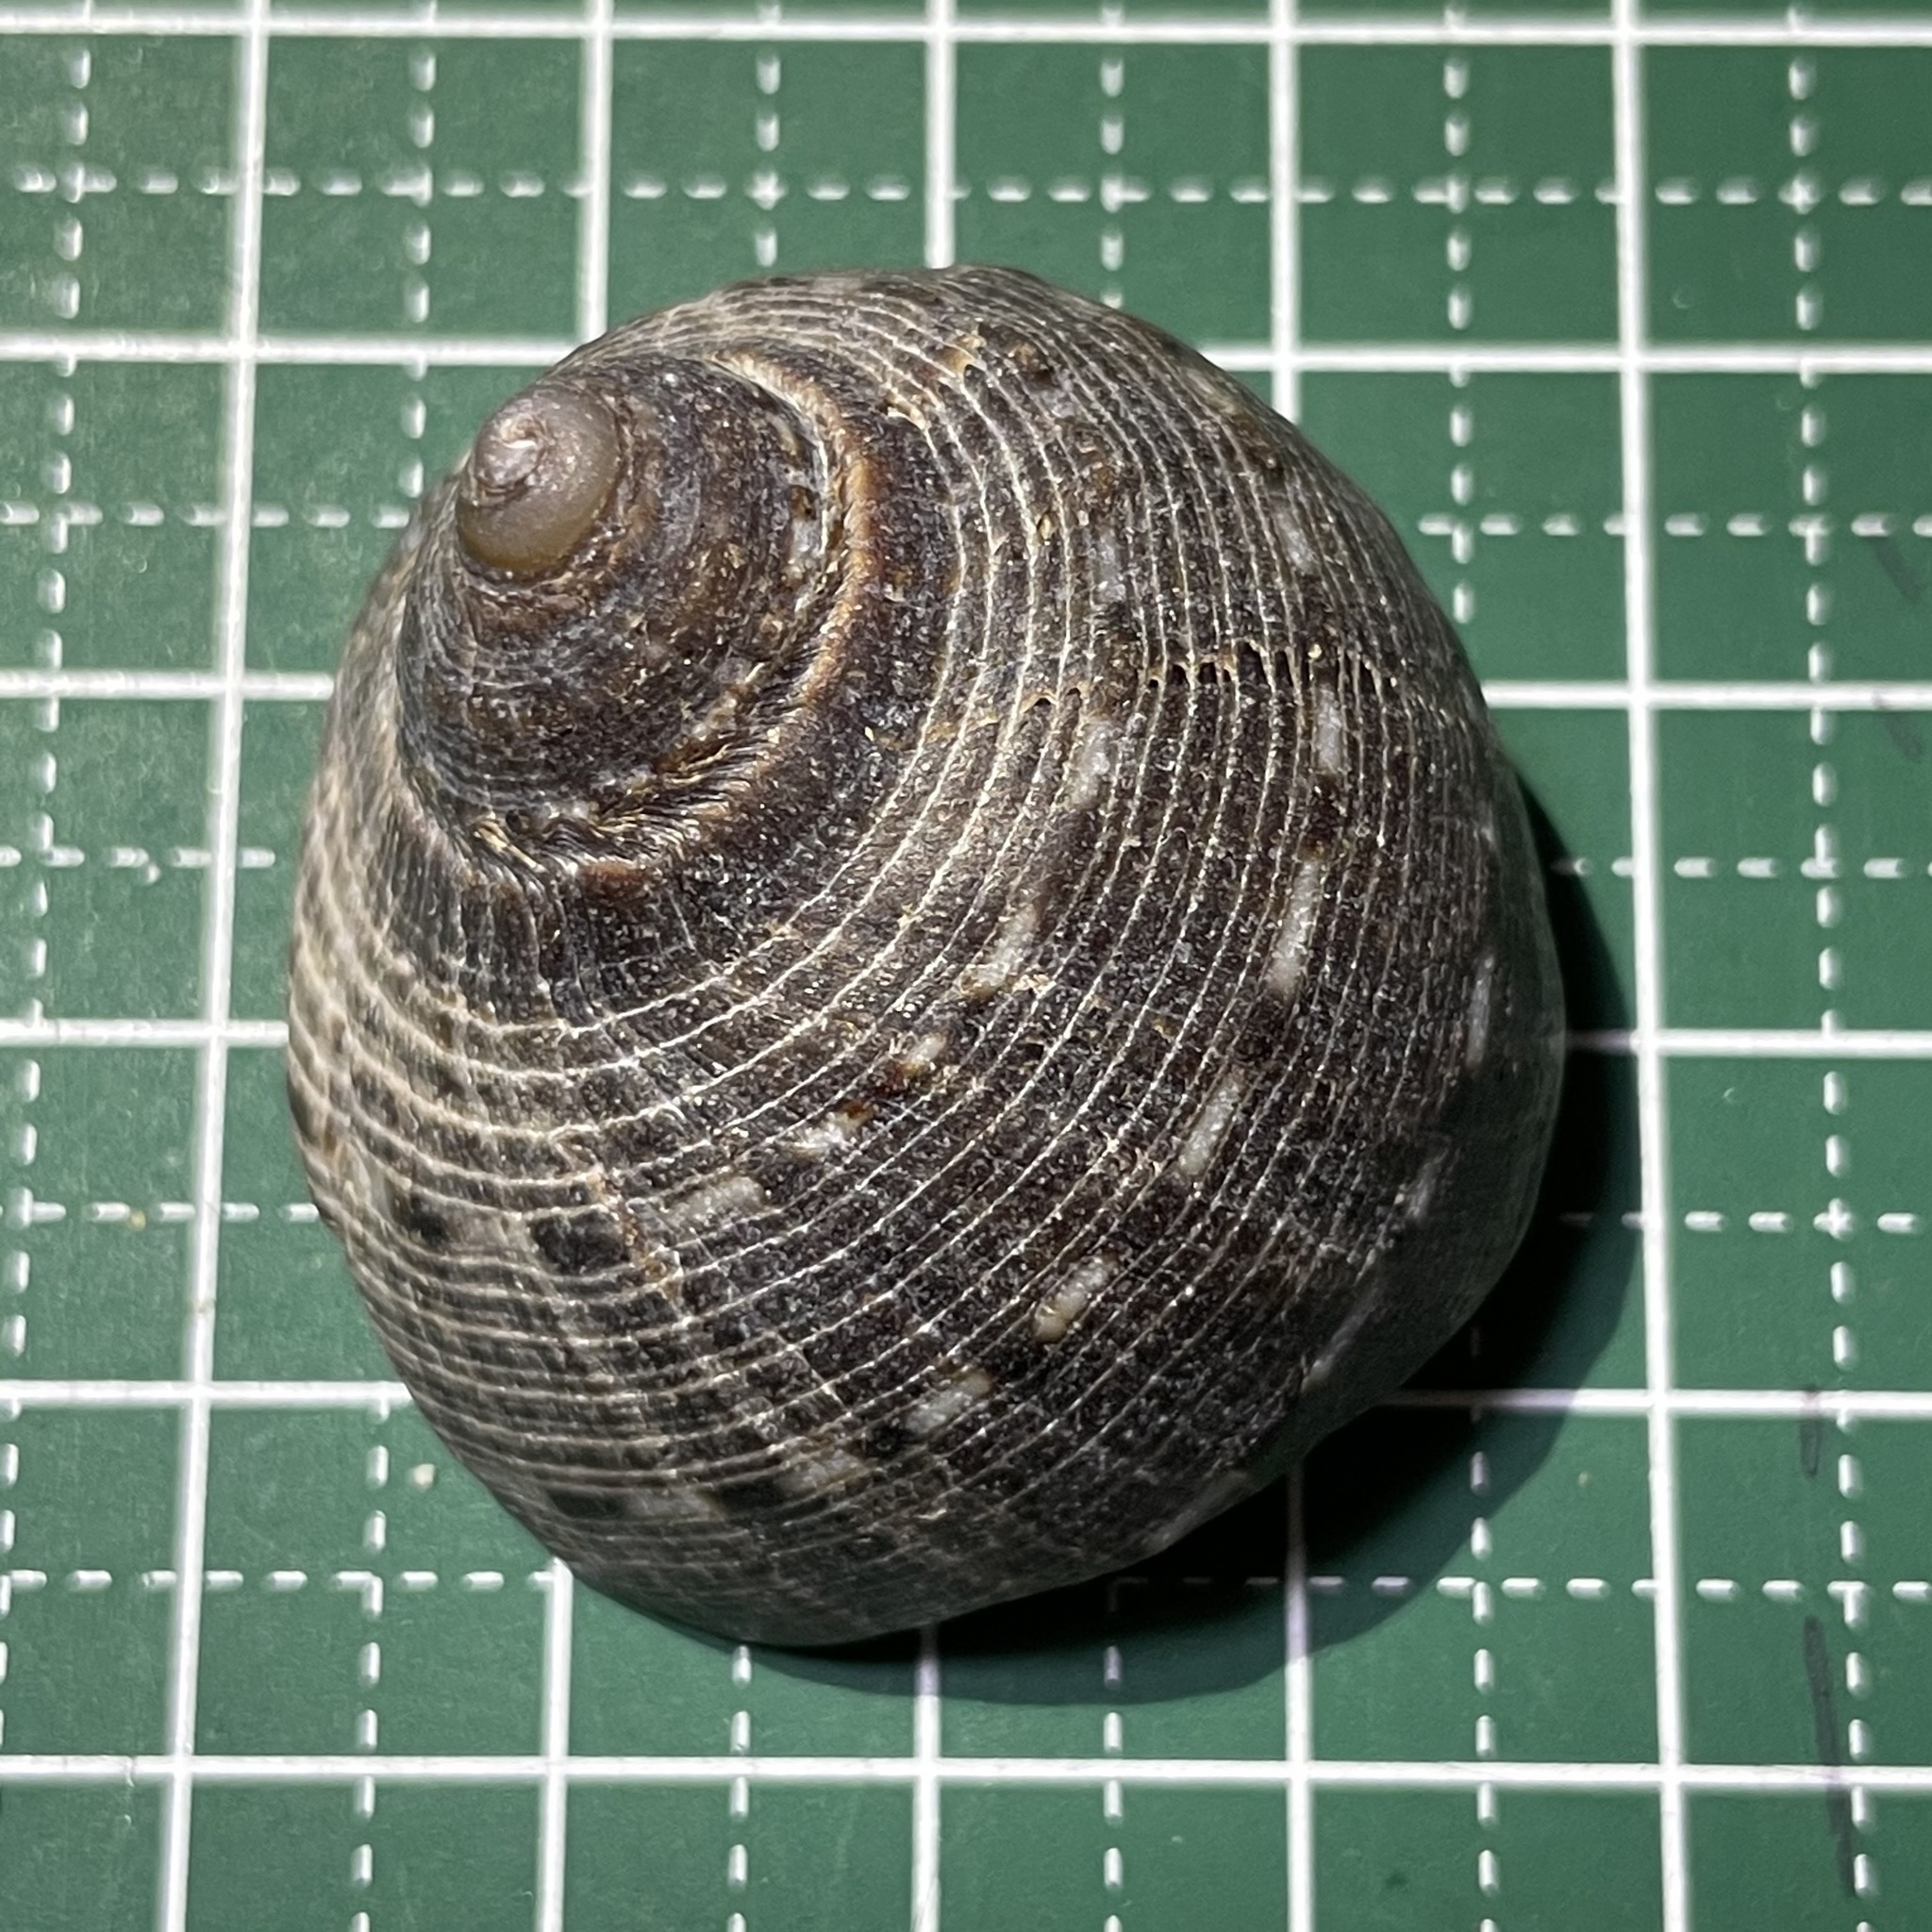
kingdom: Animalia
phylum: Mollusca
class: Gastropoda
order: Neogastropoda
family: Muricidae
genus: Purpura
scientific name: Purpura persica
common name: Persian purpura
